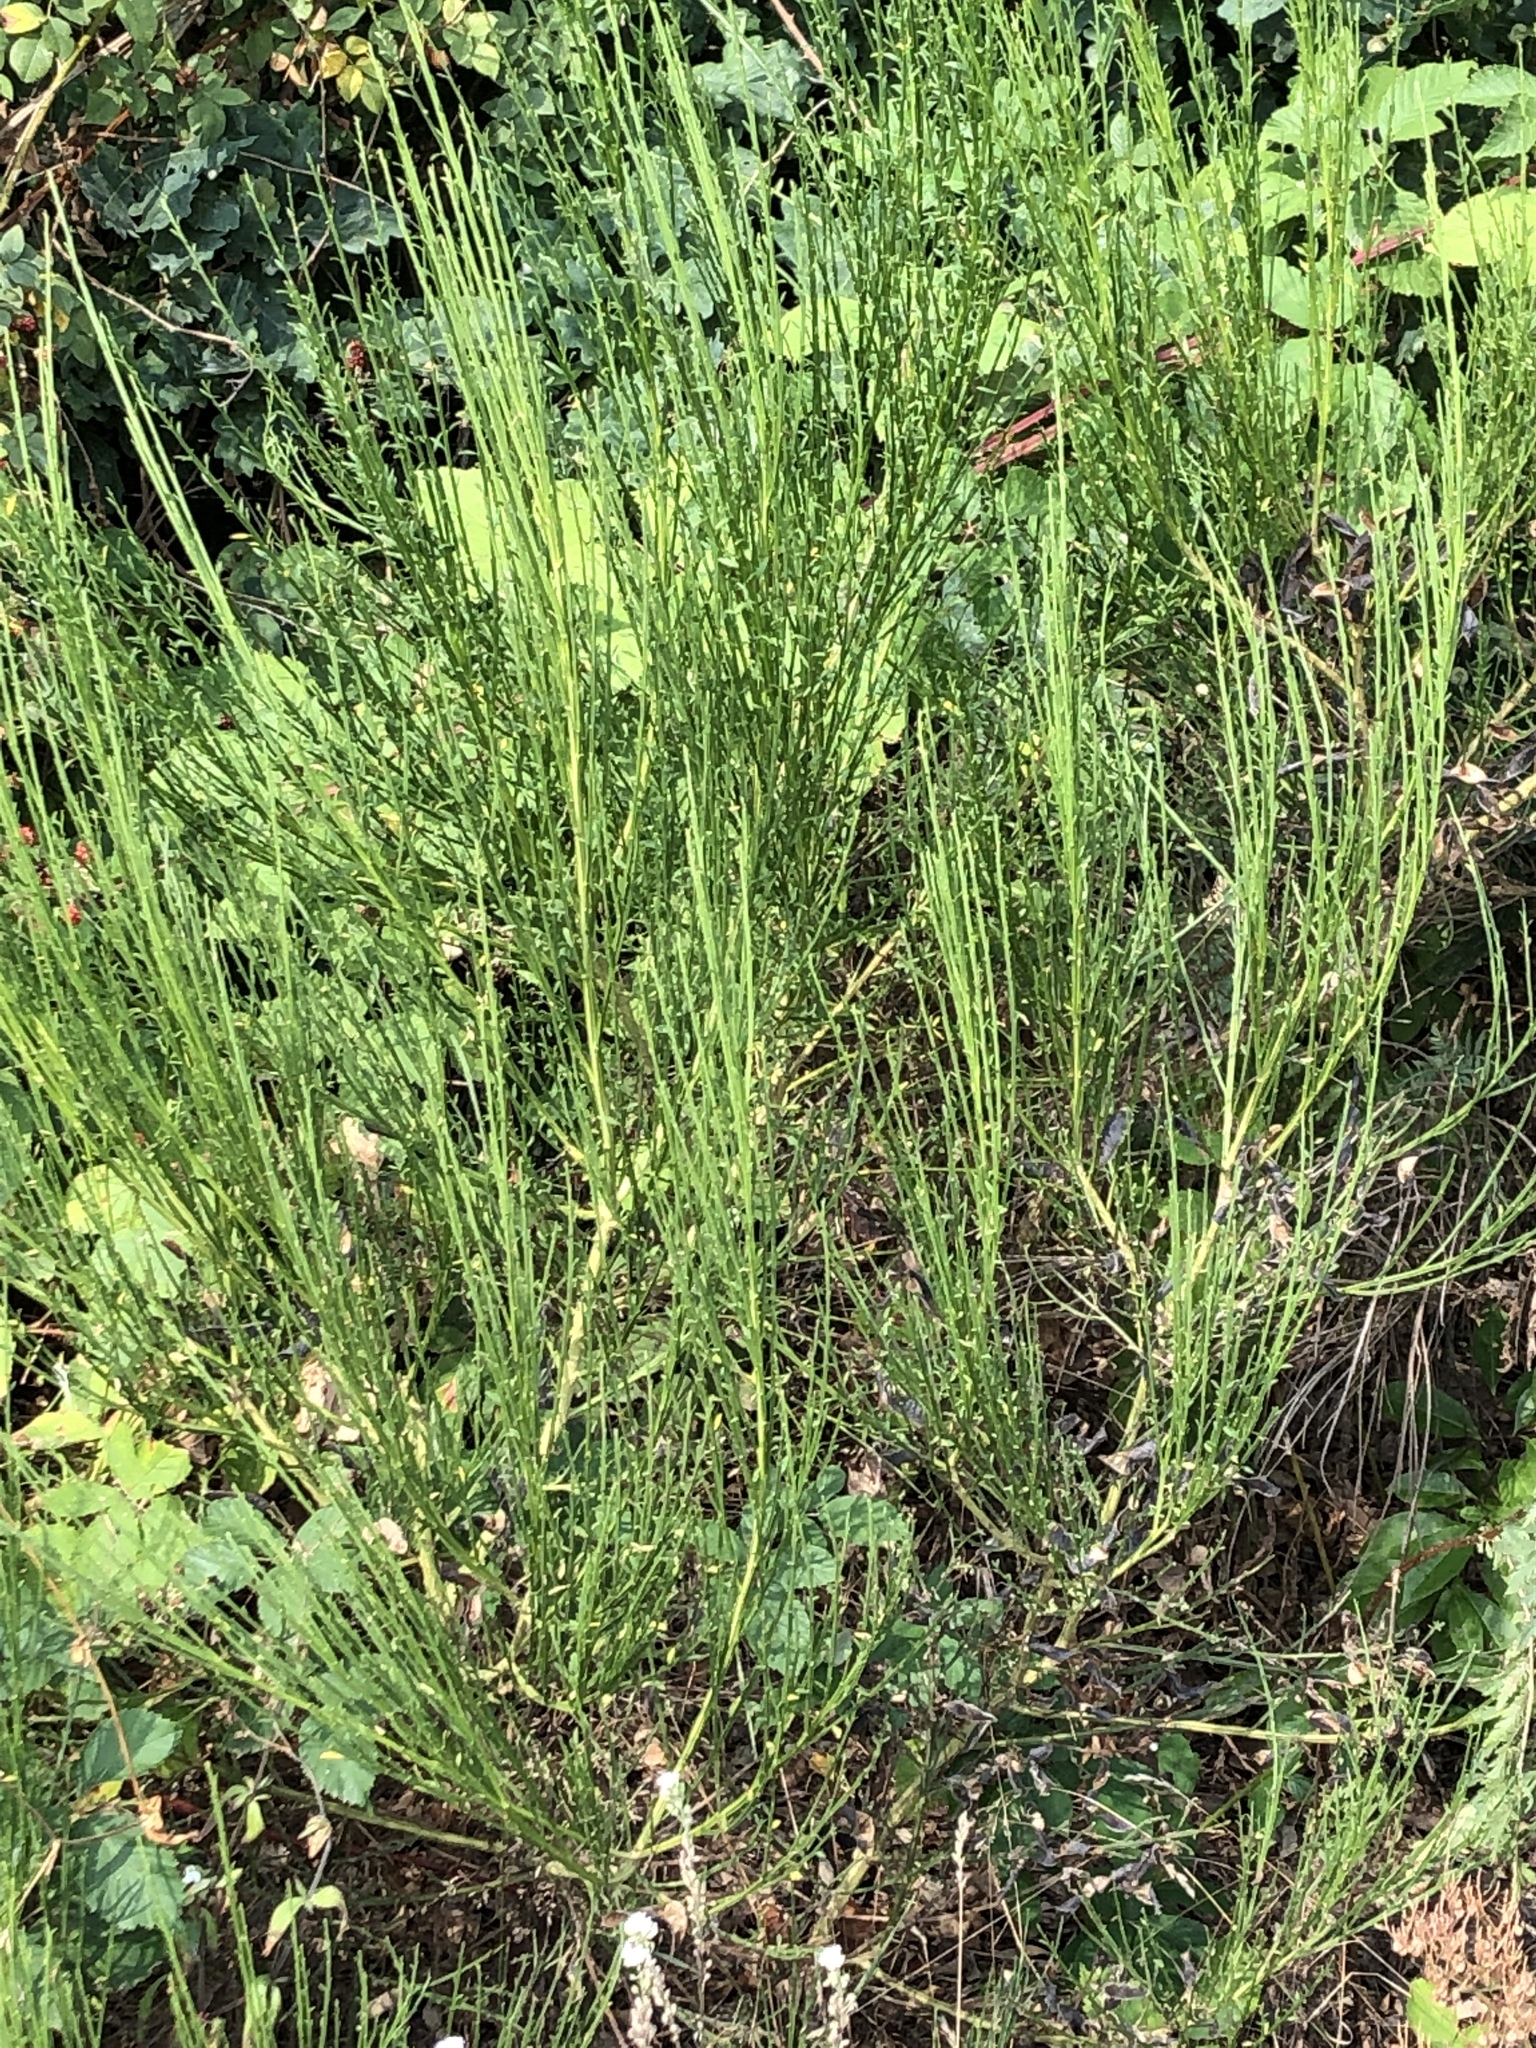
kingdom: Plantae
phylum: Tracheophyta
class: Magnoliopsida
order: Fabales
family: Fabaceae
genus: Cytisus
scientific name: Cytisus scoparius
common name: Scotch broom
